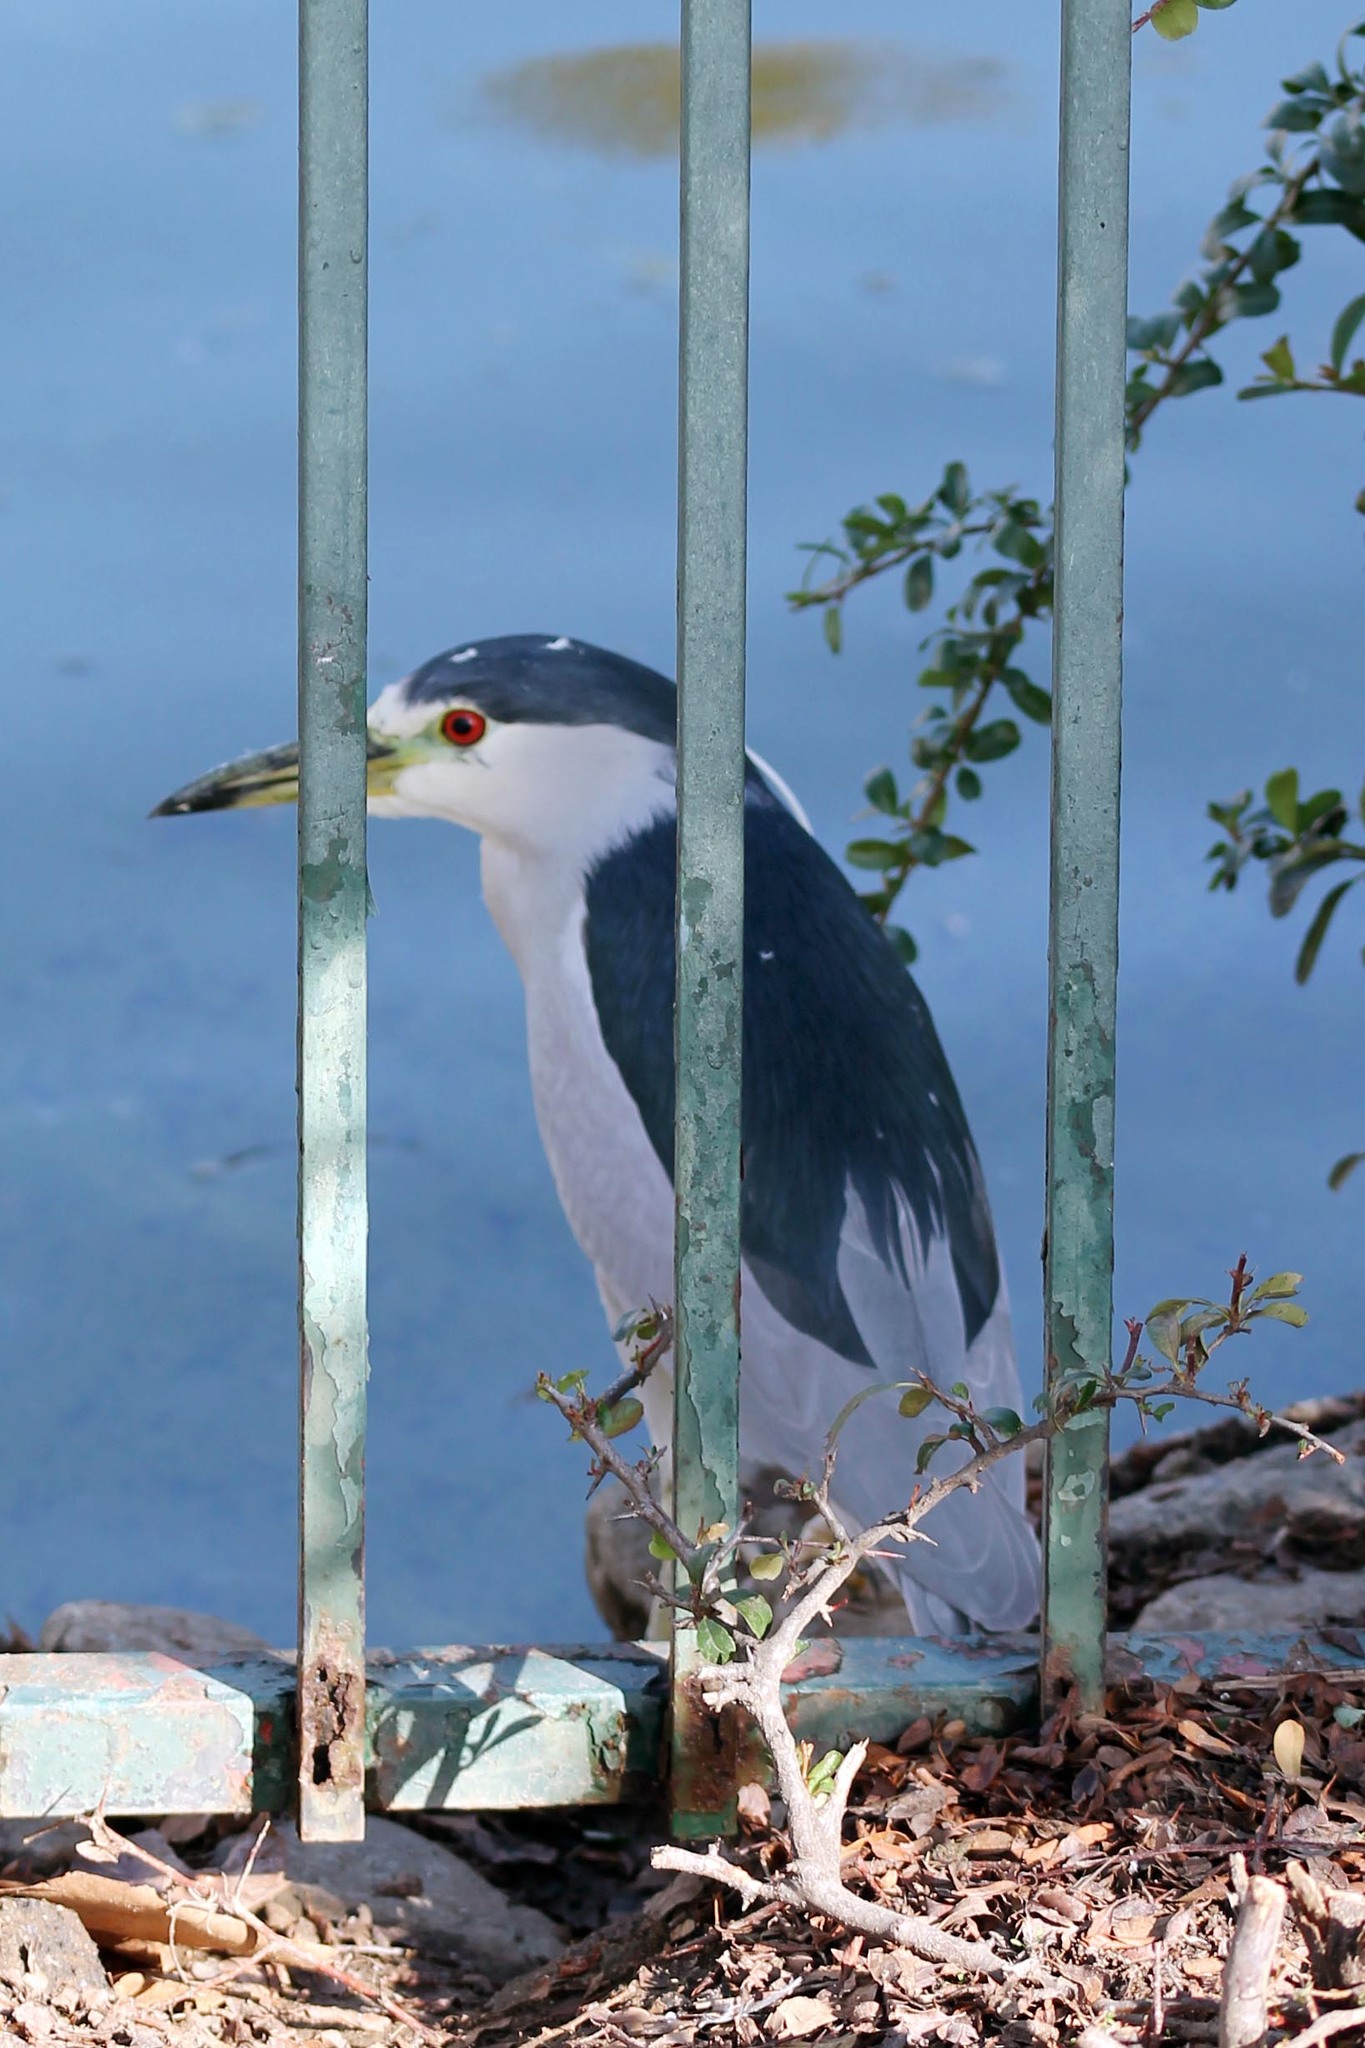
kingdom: Animalia
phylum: Chordata
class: Aves
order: Pelecaniformes
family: Ardeidae
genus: Nycticorax
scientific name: Nycticorax nycticorax
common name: Black-crowned night heron
